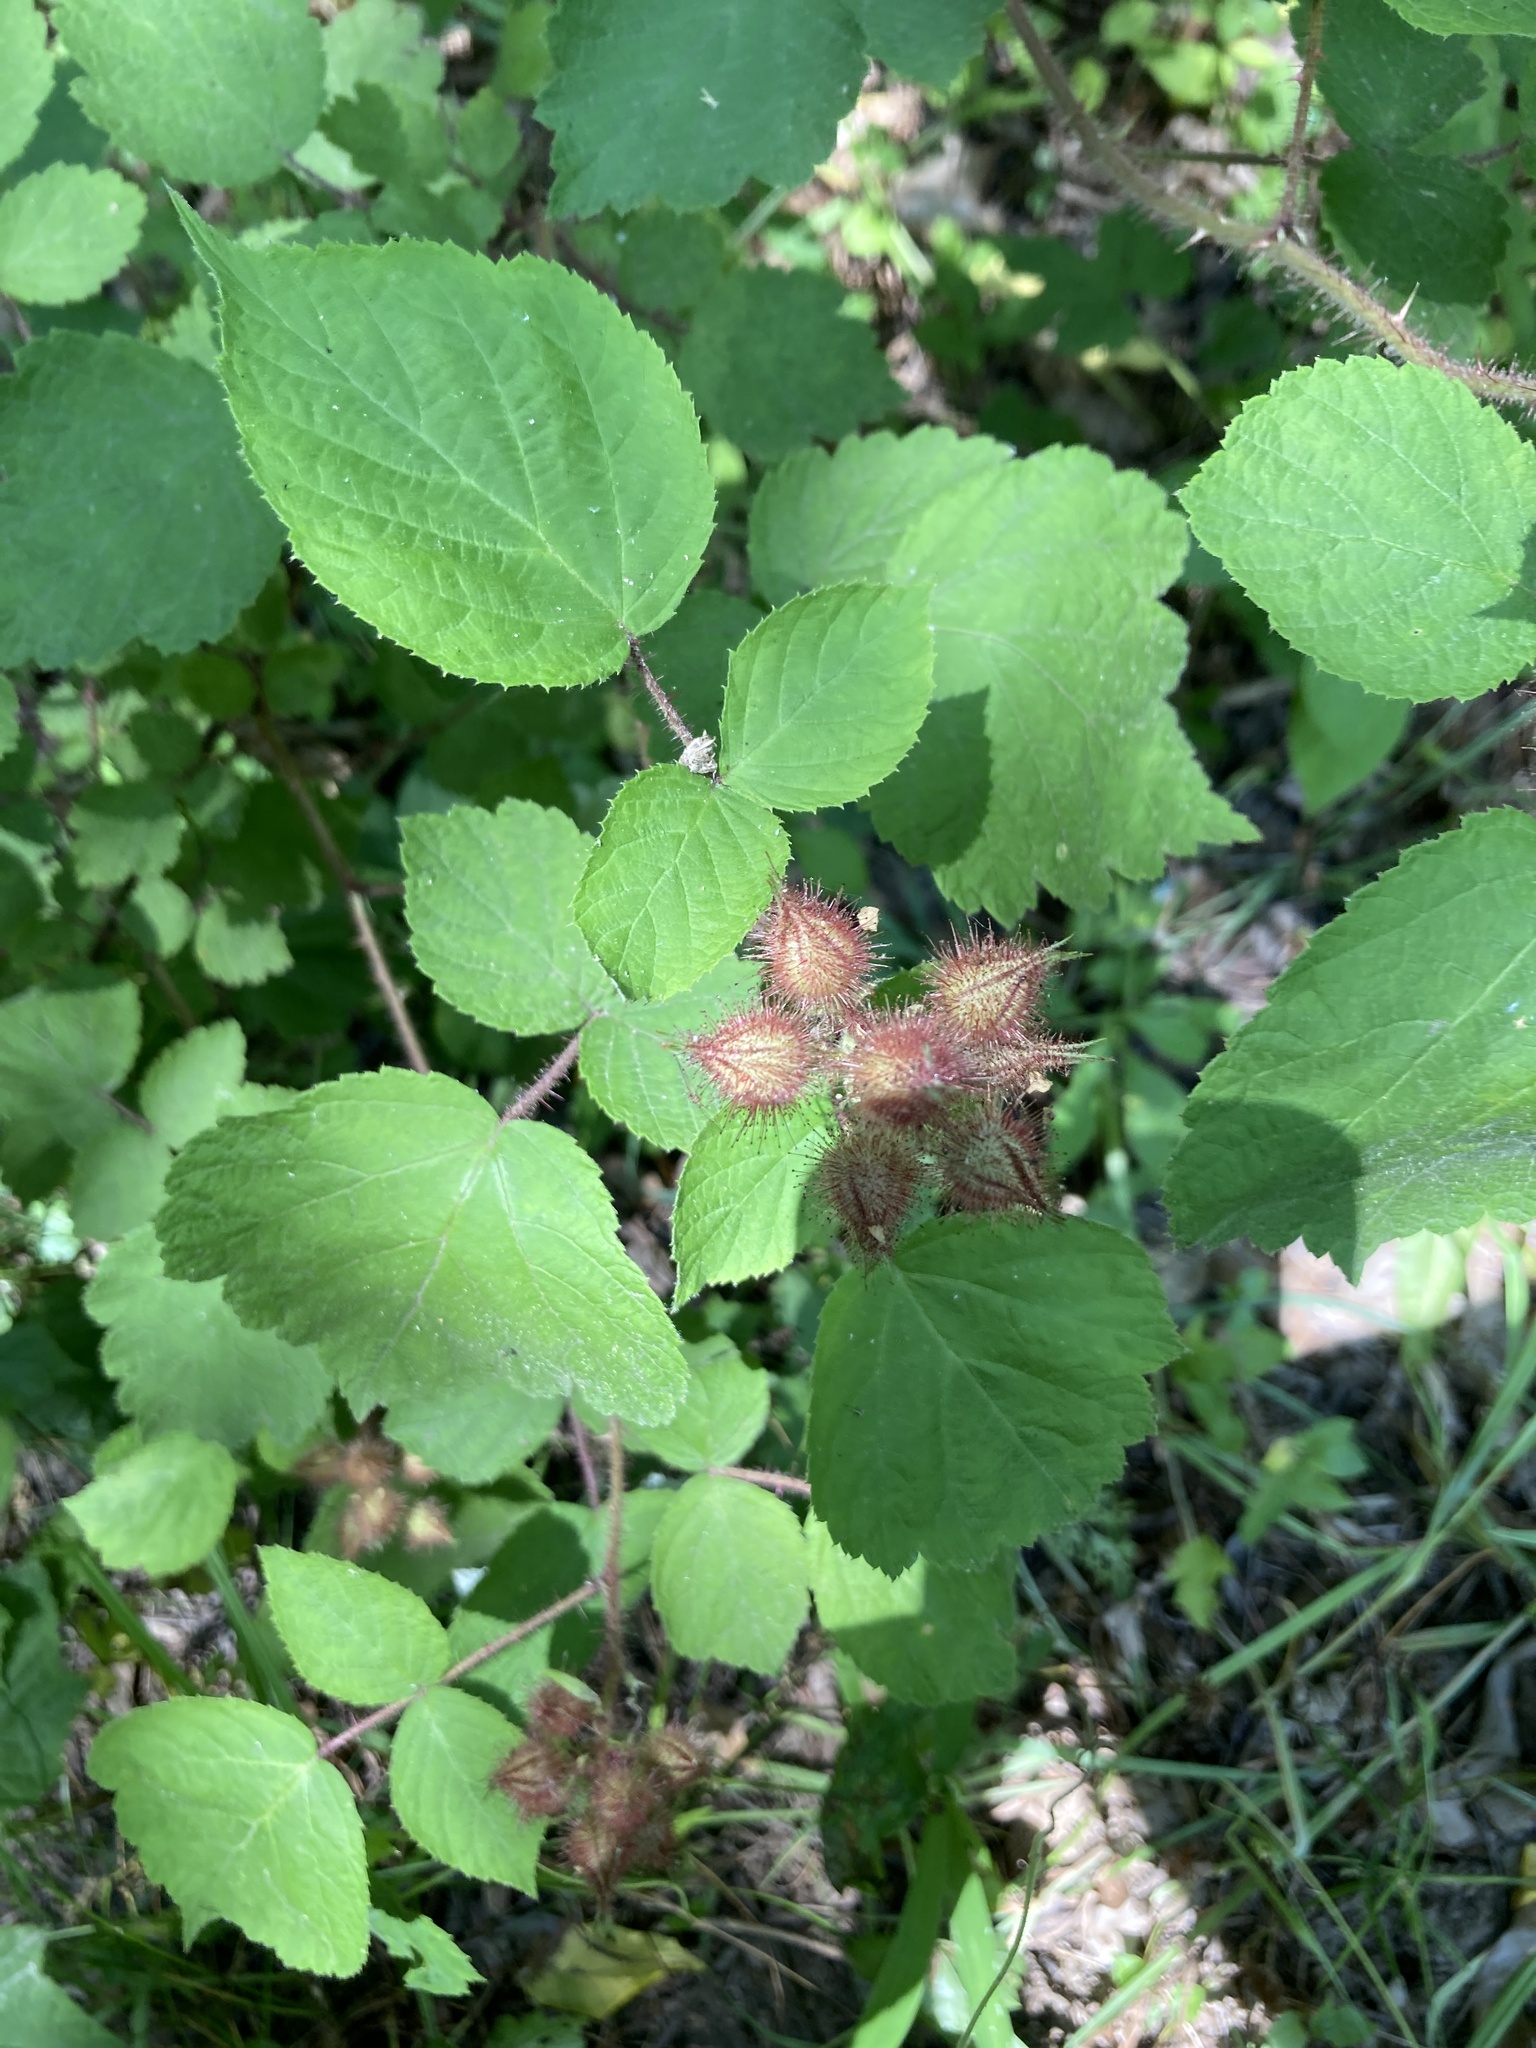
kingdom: Plantae
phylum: Tracheophyta
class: Magnoliopsida
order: Rosales
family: Rosaceae
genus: Rubus
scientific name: Rubus phoenicolasius
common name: Japanese wineberry
